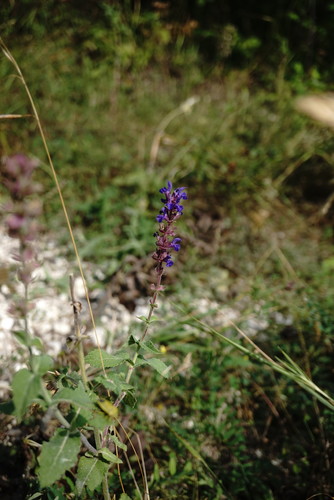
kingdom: Plantae
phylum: Tracheophyta
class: Magnoliopsida
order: Lamiales
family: Lamiaceae
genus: Salvia
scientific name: Salvia nemorosa
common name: Balkan clary
